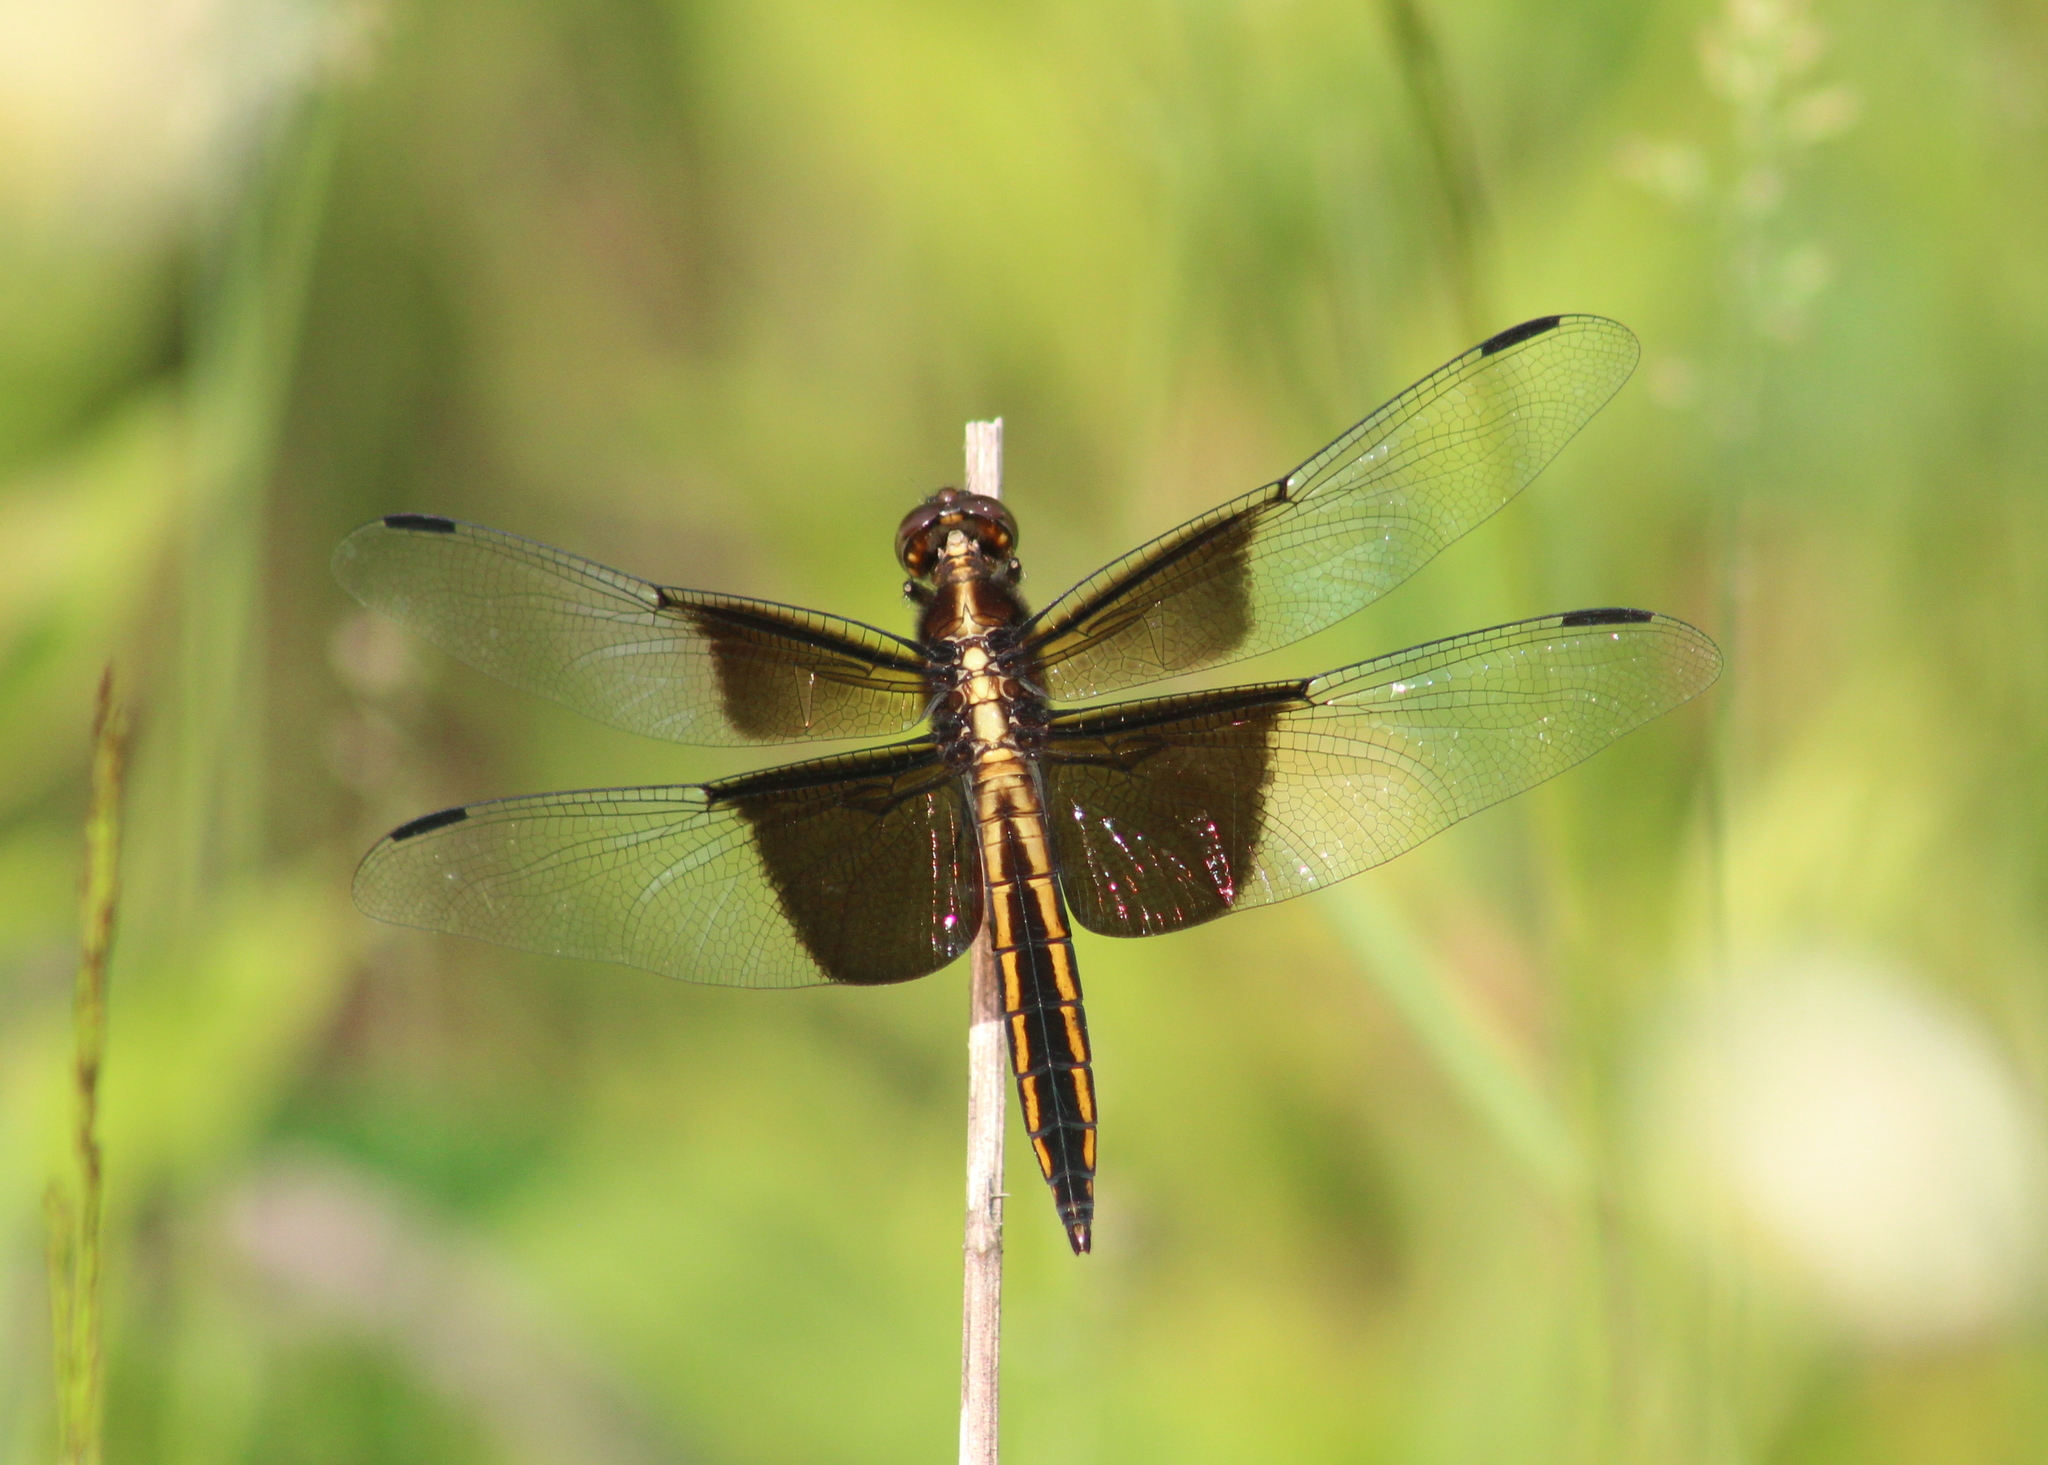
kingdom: Animalia
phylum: Arthropoda
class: Insecta
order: Odonata
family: Libellulidae
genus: Libellula
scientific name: Libellula luctuosa
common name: Widow skimmer
